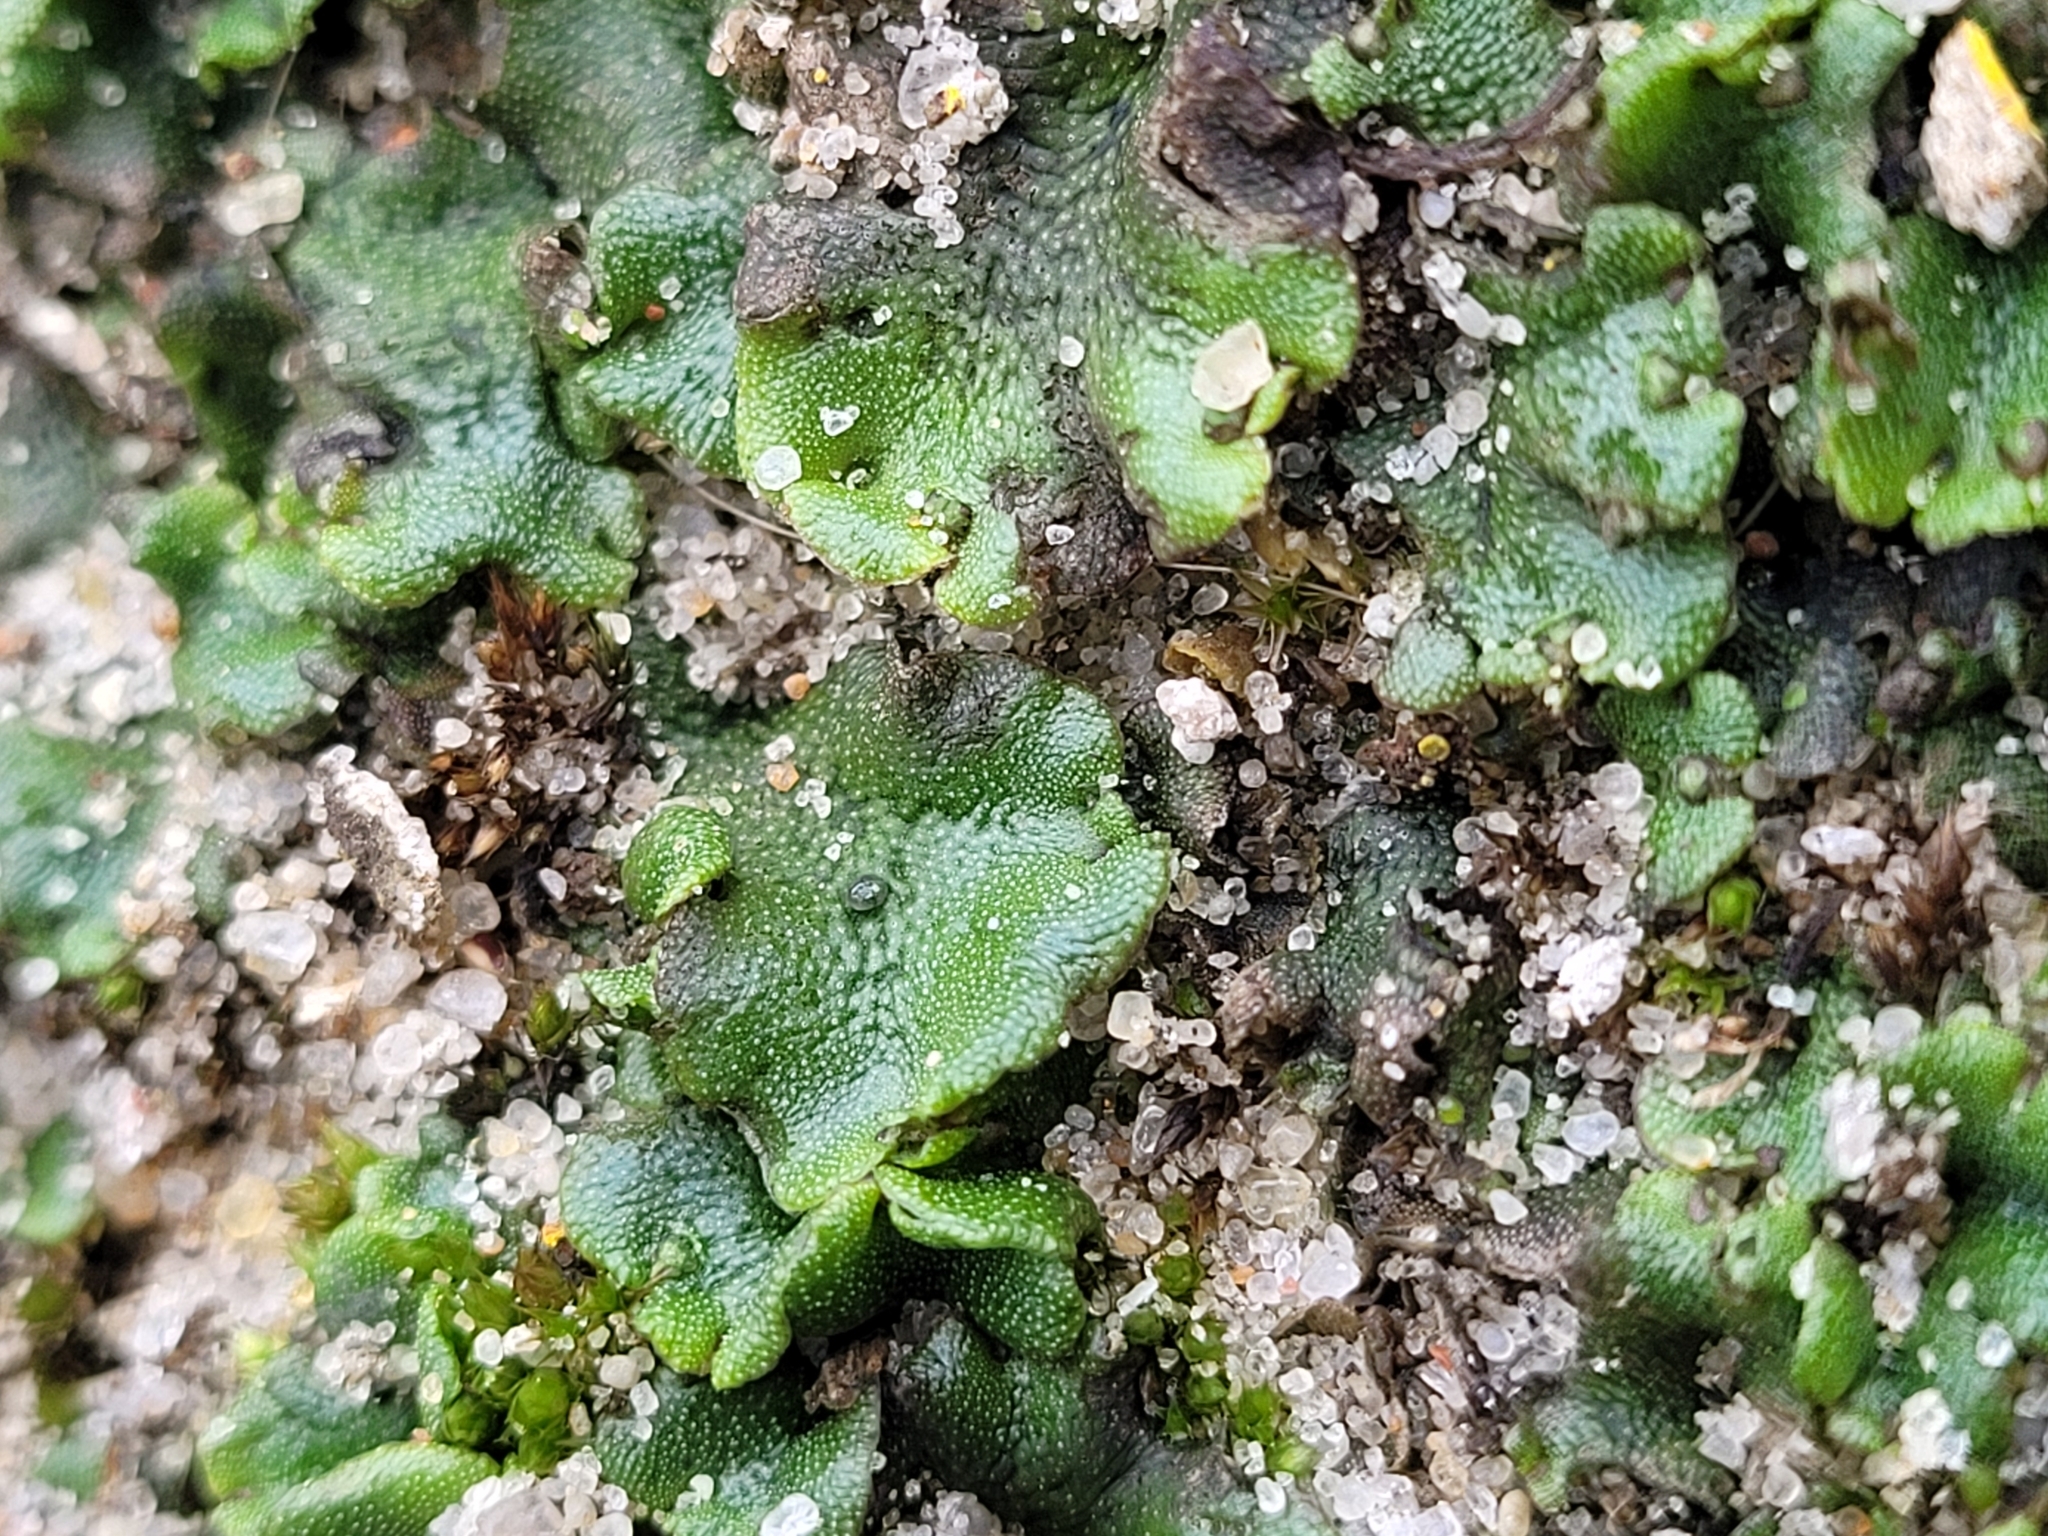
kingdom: Plantae
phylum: Marchantiophyta
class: Marchantiopsida
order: Marchantiales
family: Marchantiaceae
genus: Marchantia
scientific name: Marchantia polymorpha
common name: Common liverwort
